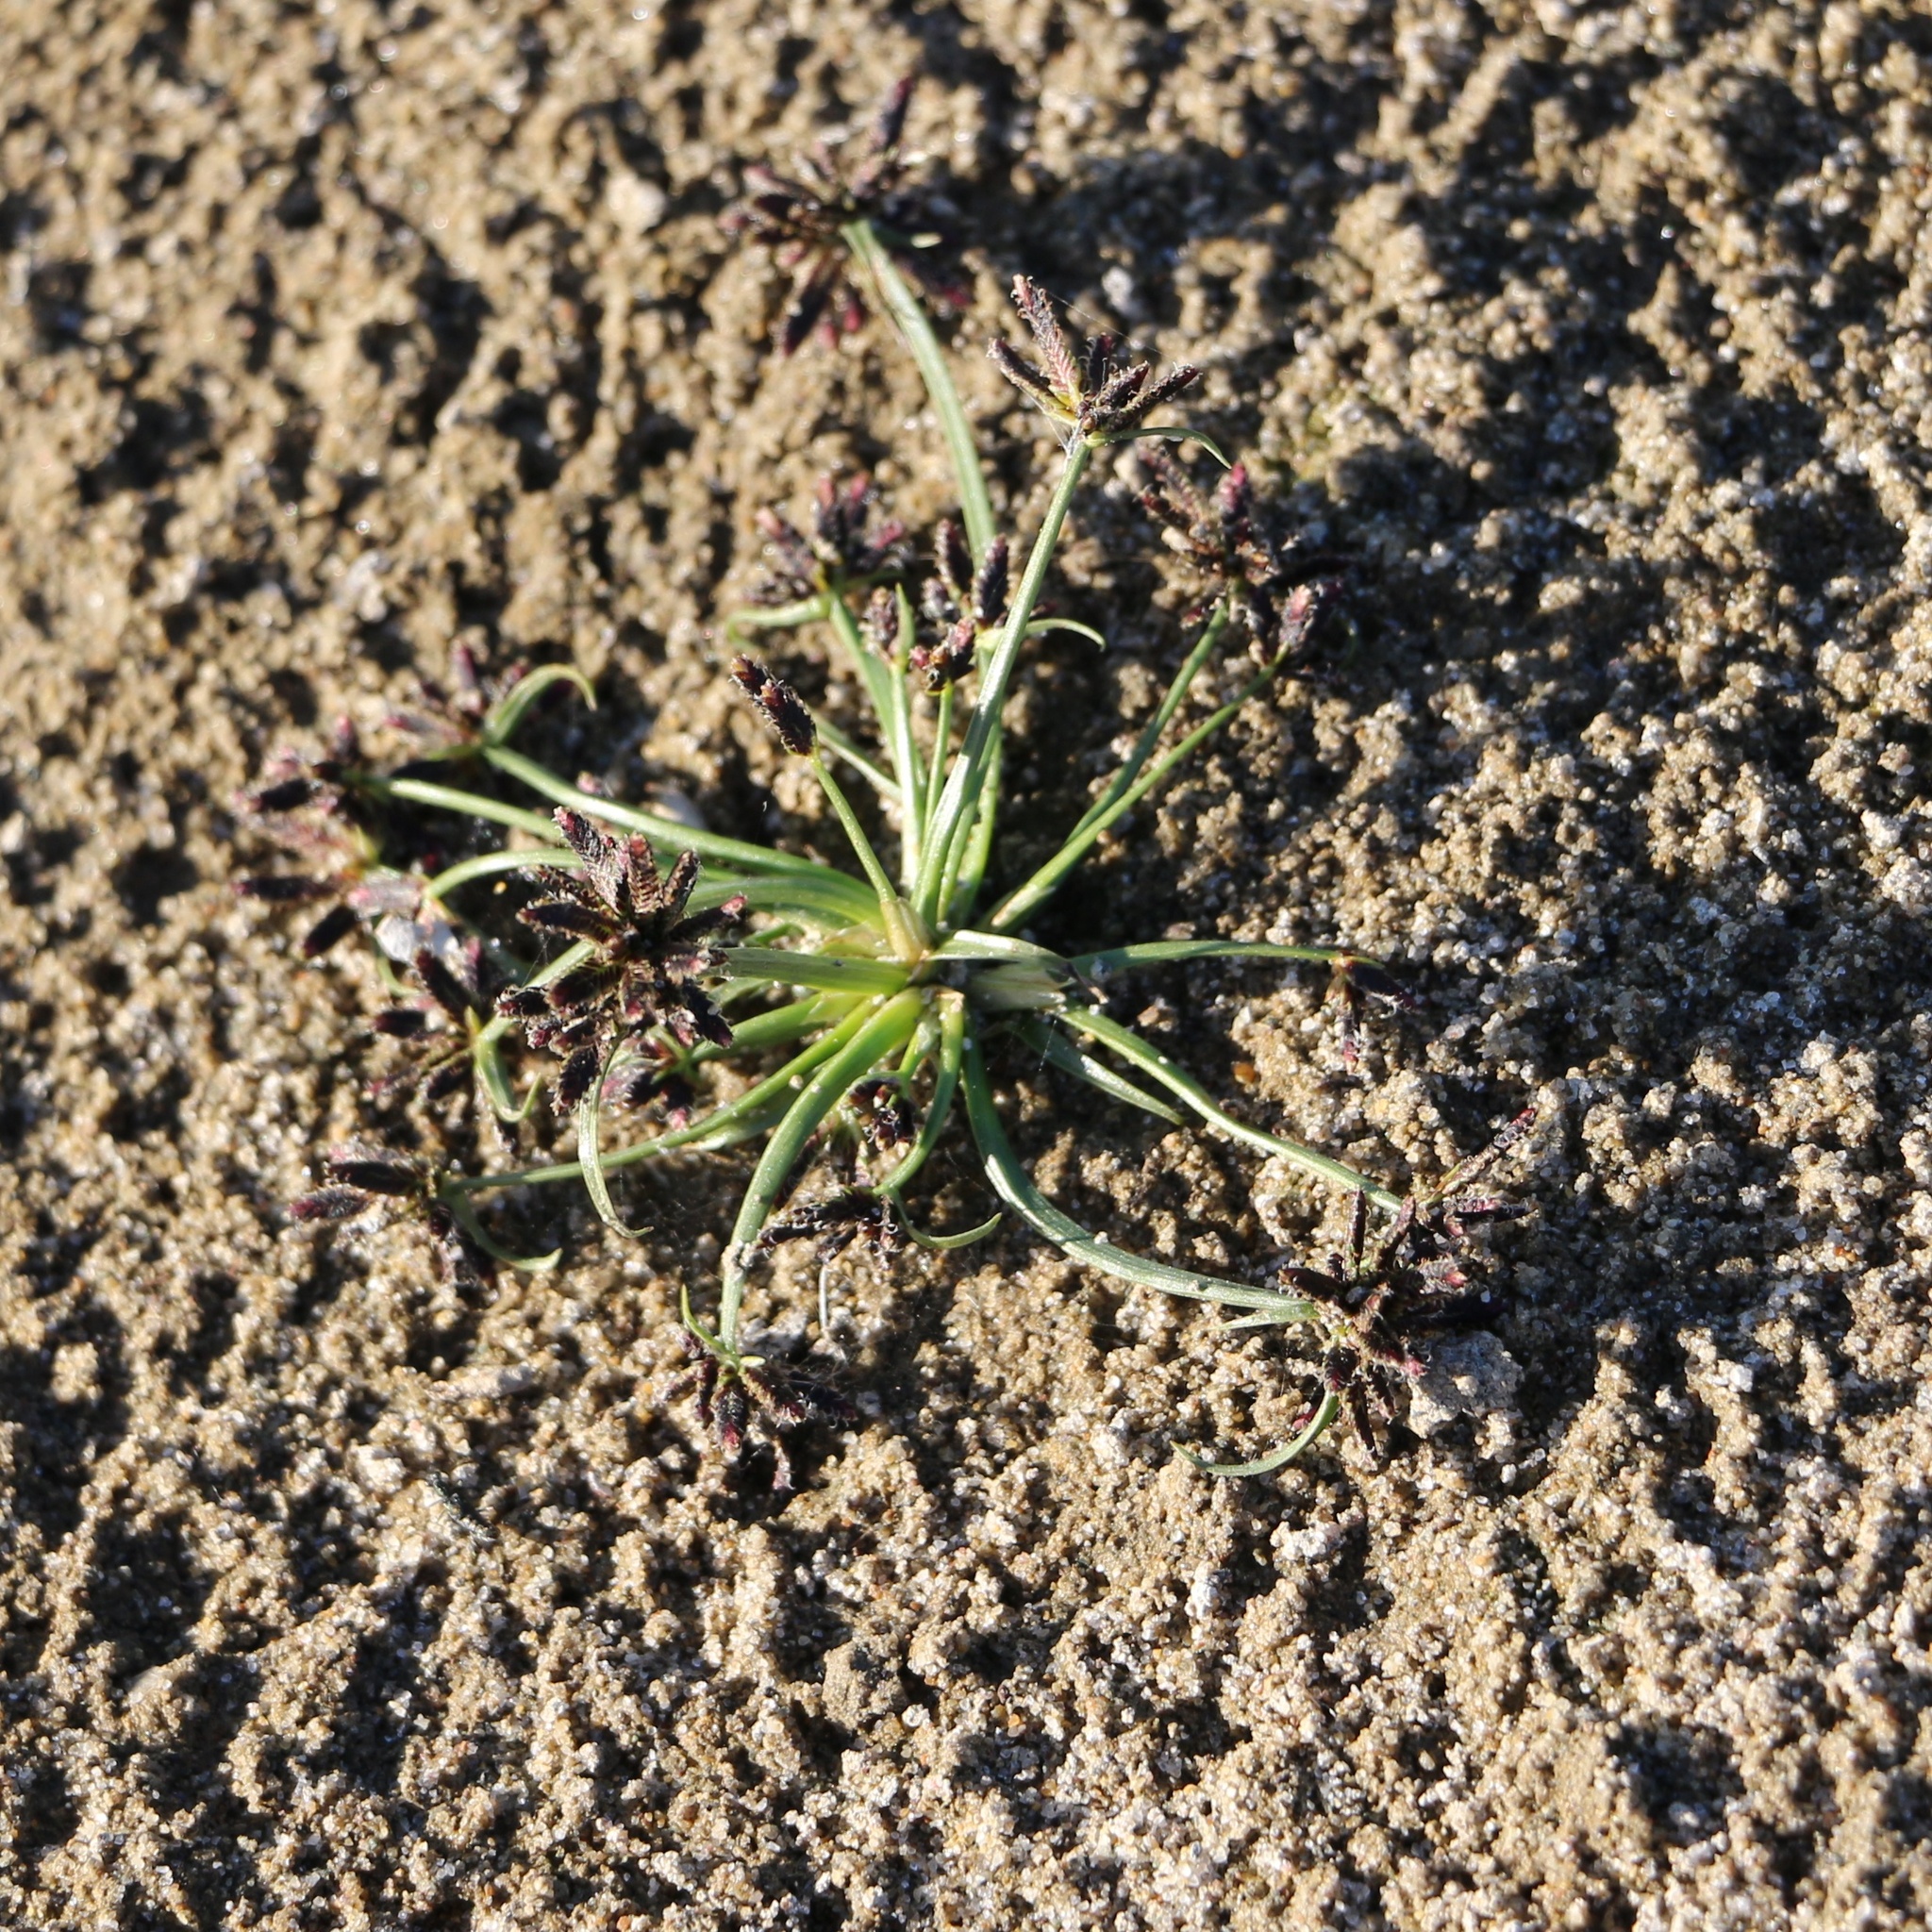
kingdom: Plantae
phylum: Tracheophyta
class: Liliopsida
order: Poales
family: Cyperaceae
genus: Cyperus
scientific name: Cyperus fuscus
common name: Brown galingale
